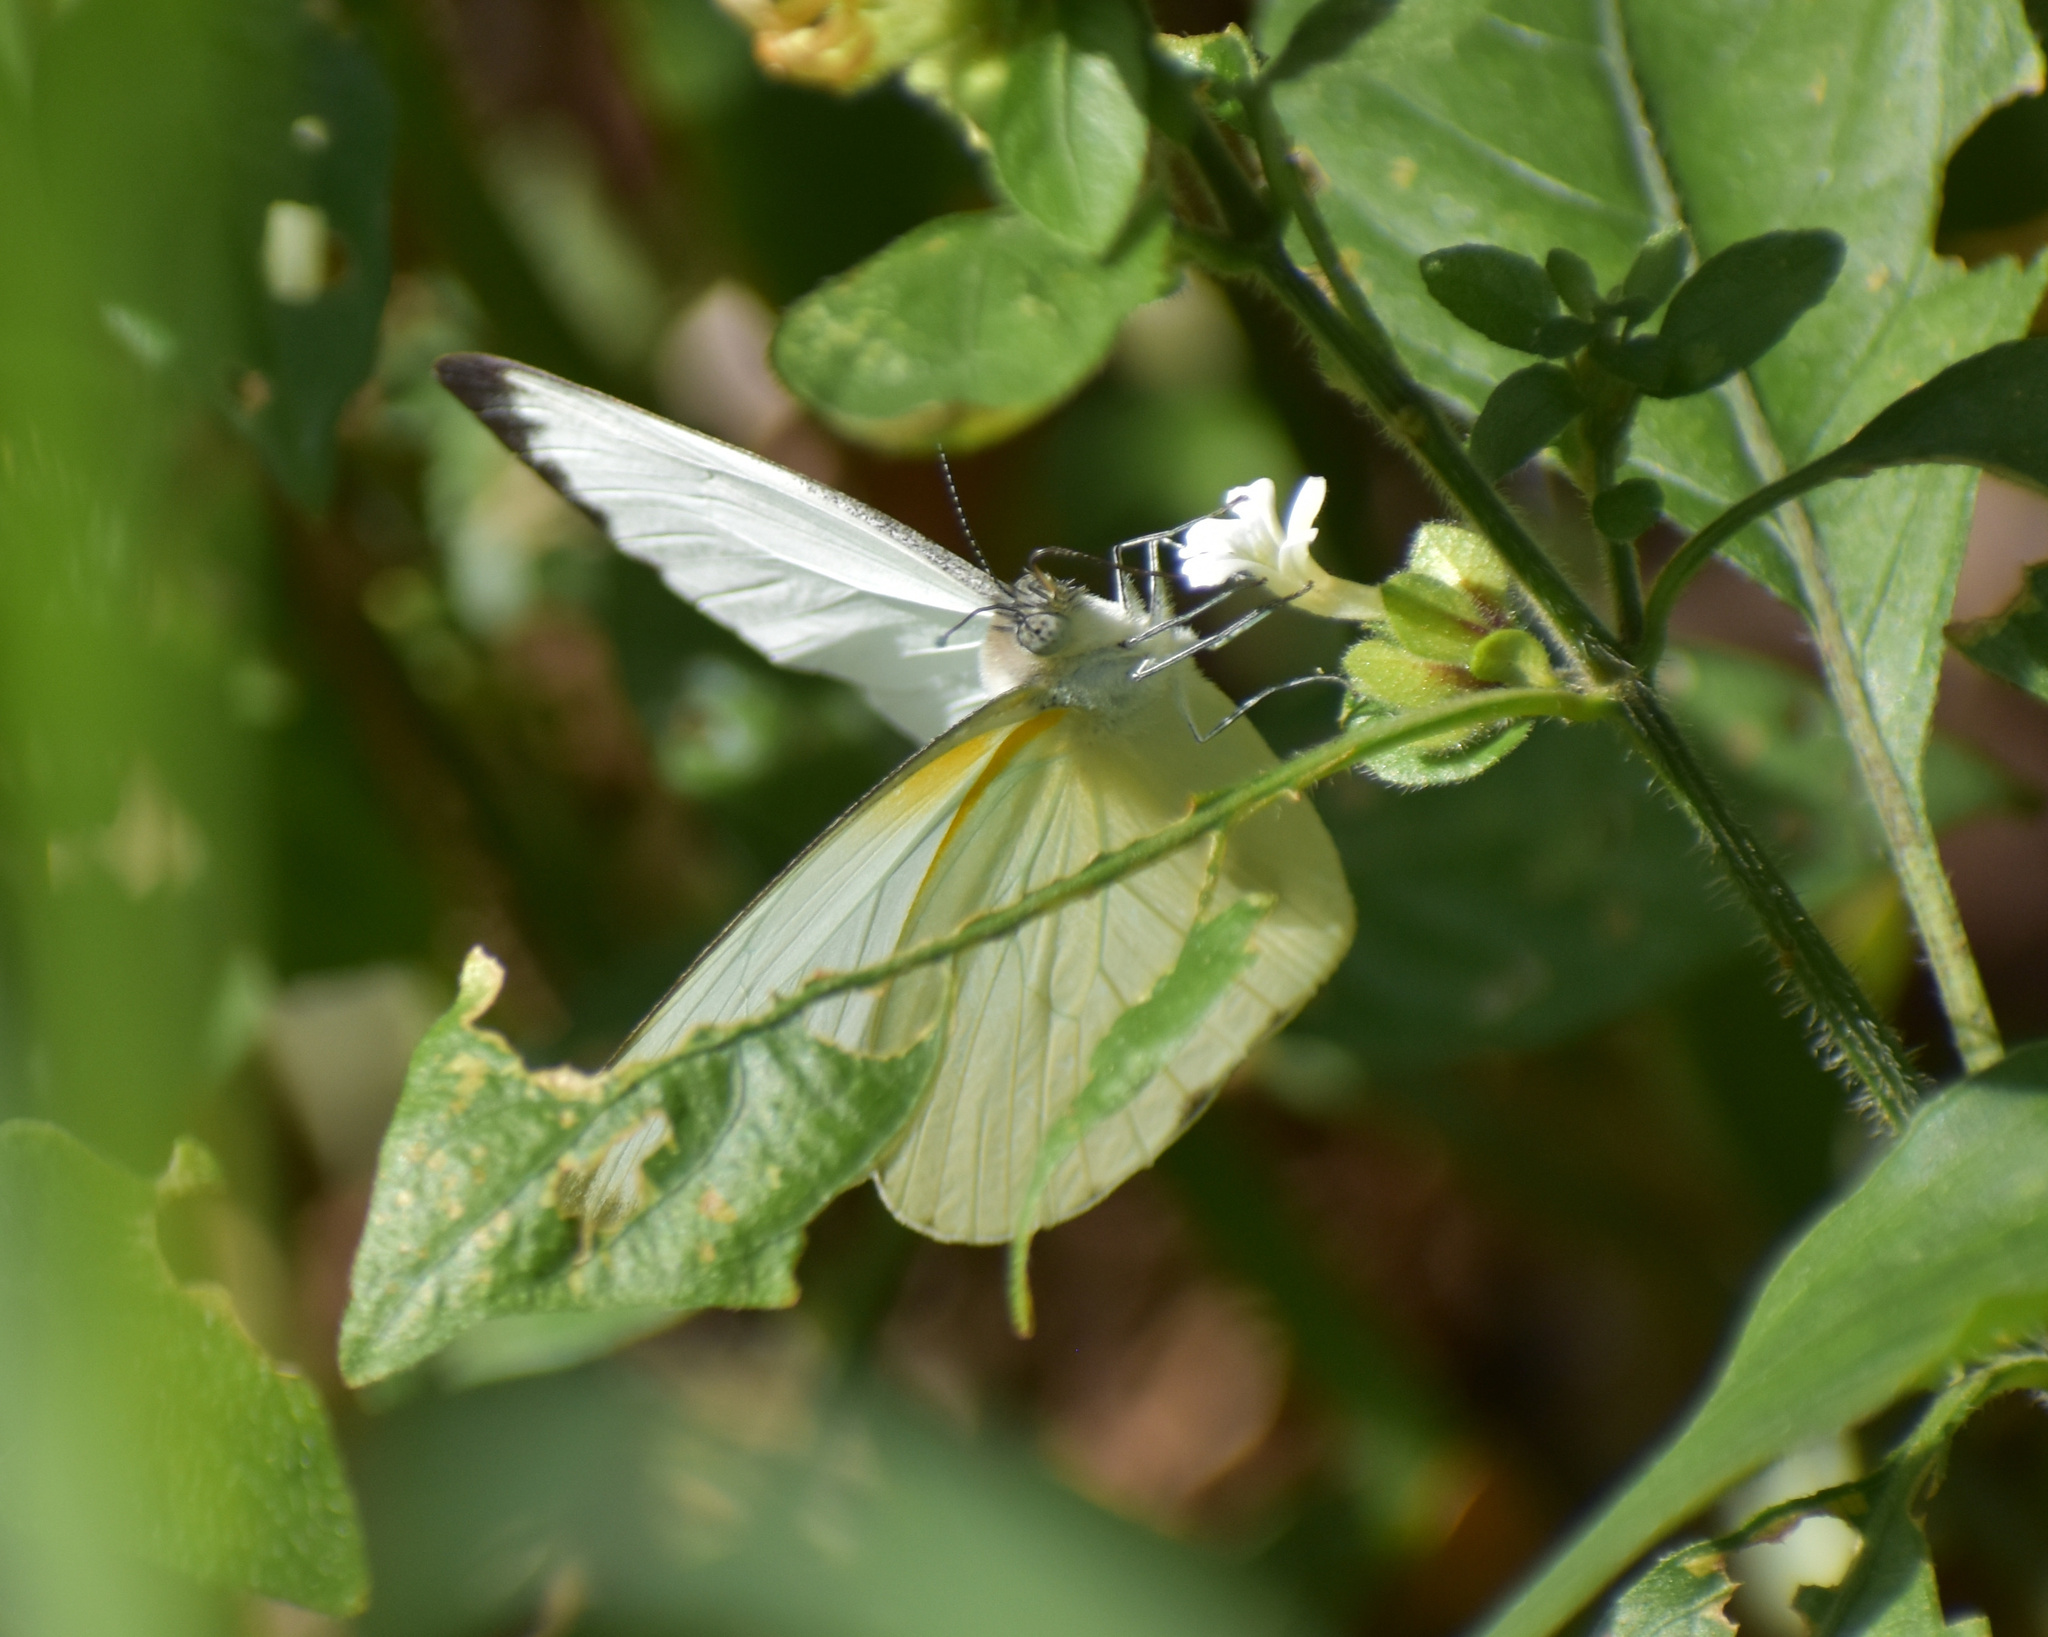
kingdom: Animalia
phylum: Arthropoda
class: Insecta
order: Lepidoptera
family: Pieridae
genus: Glutophrissa
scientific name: Glutophrissa epaphia
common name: African albatross
